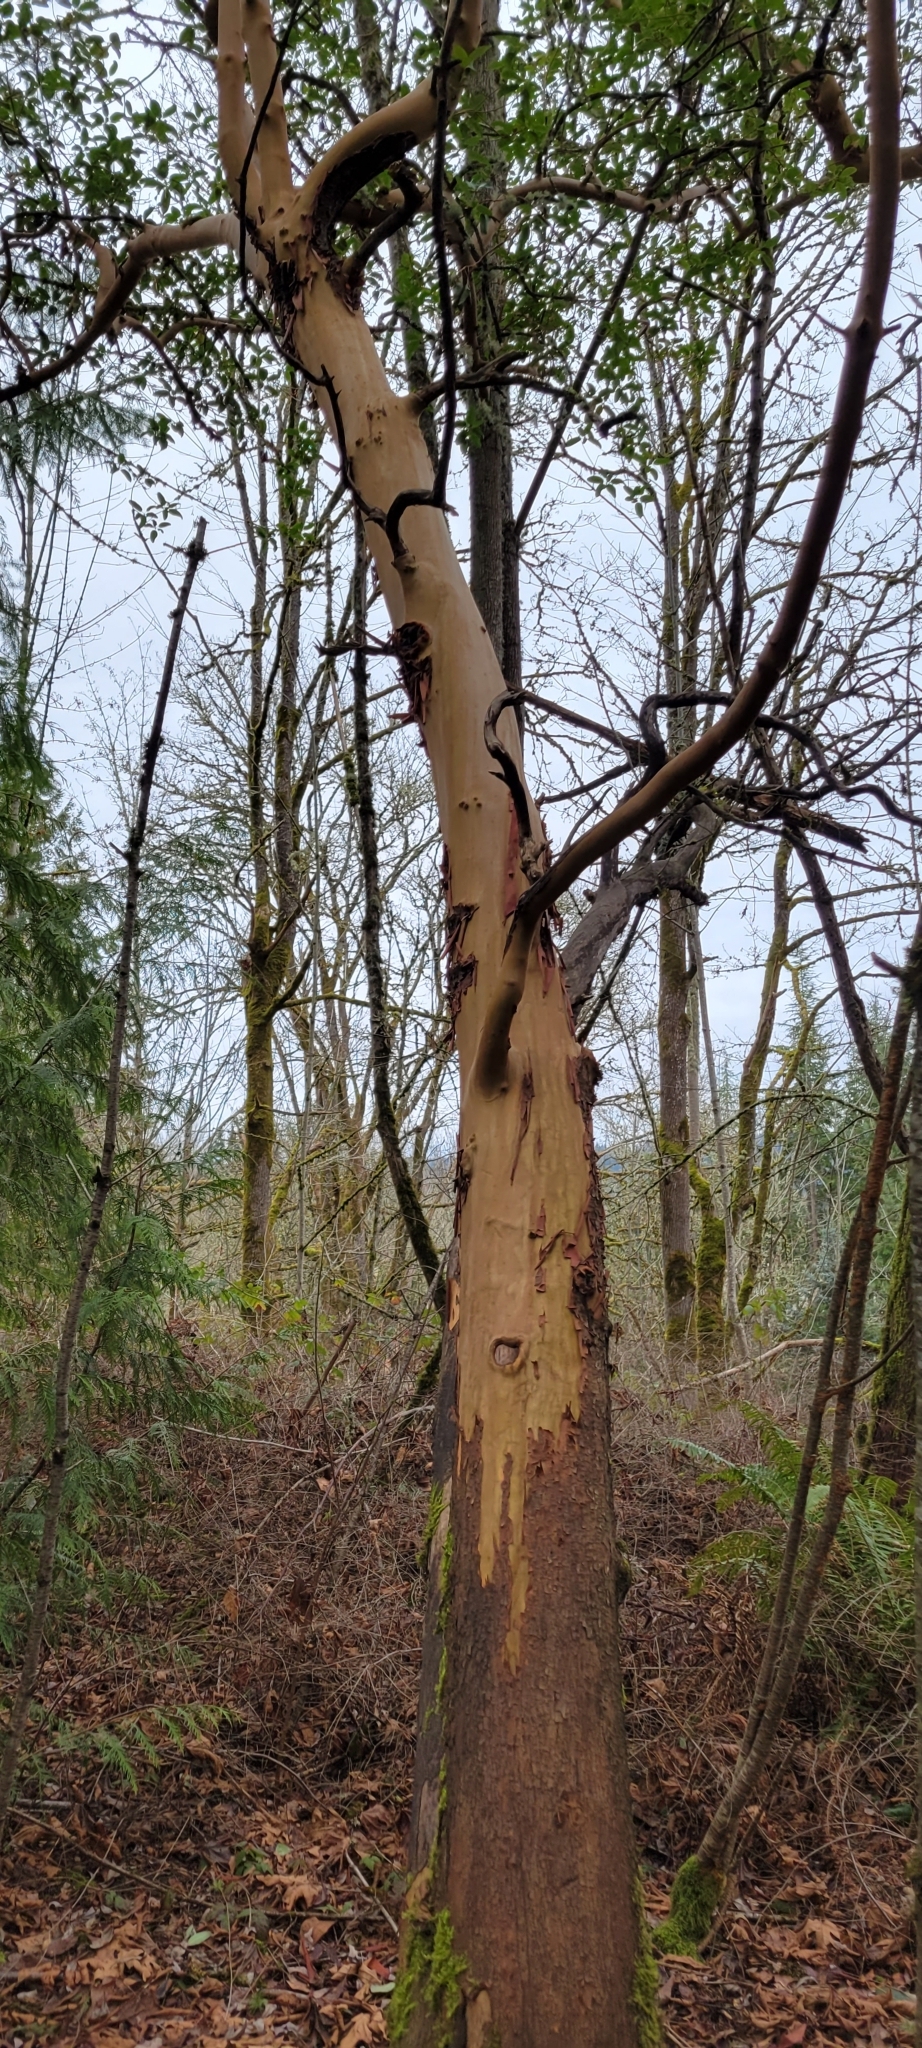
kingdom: Plantae
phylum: Tracheophyta
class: Magnoliopsida
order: Ericales
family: Ericaceae
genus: Arbutus
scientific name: Arbutus menziesii
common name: Pacific madrone
